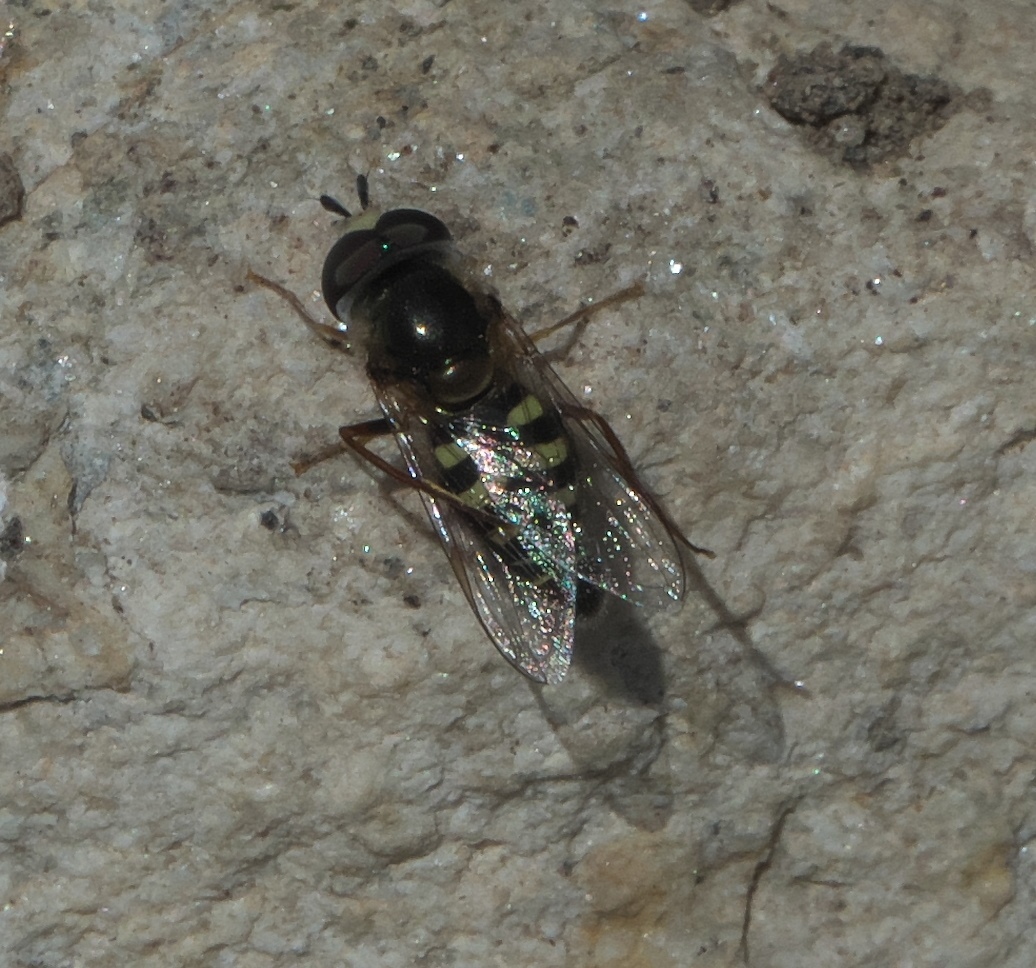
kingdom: Animalia
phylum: Arthropoda
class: Insecta
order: Diptera
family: Syrphidae
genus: Eupeodes
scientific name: Eupeodes volucris
